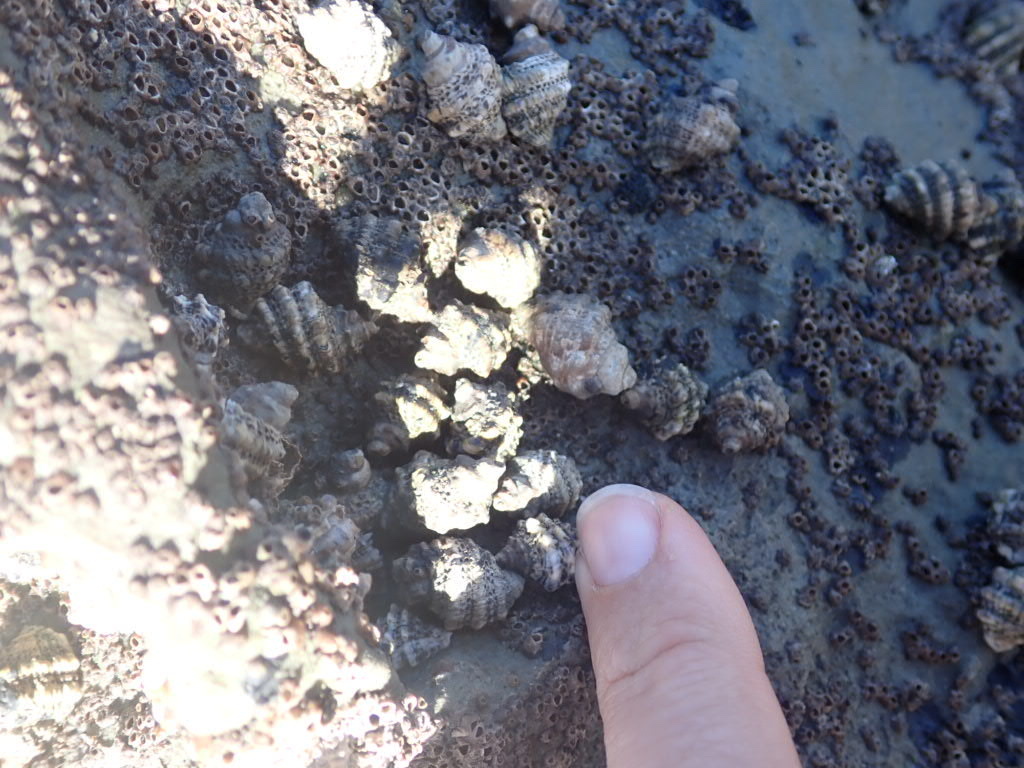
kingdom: Animalia
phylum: Mollusca
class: Gastropoda
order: Neogastropoda
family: Muricidae
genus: Haustrum
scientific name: Haustrum scobina
